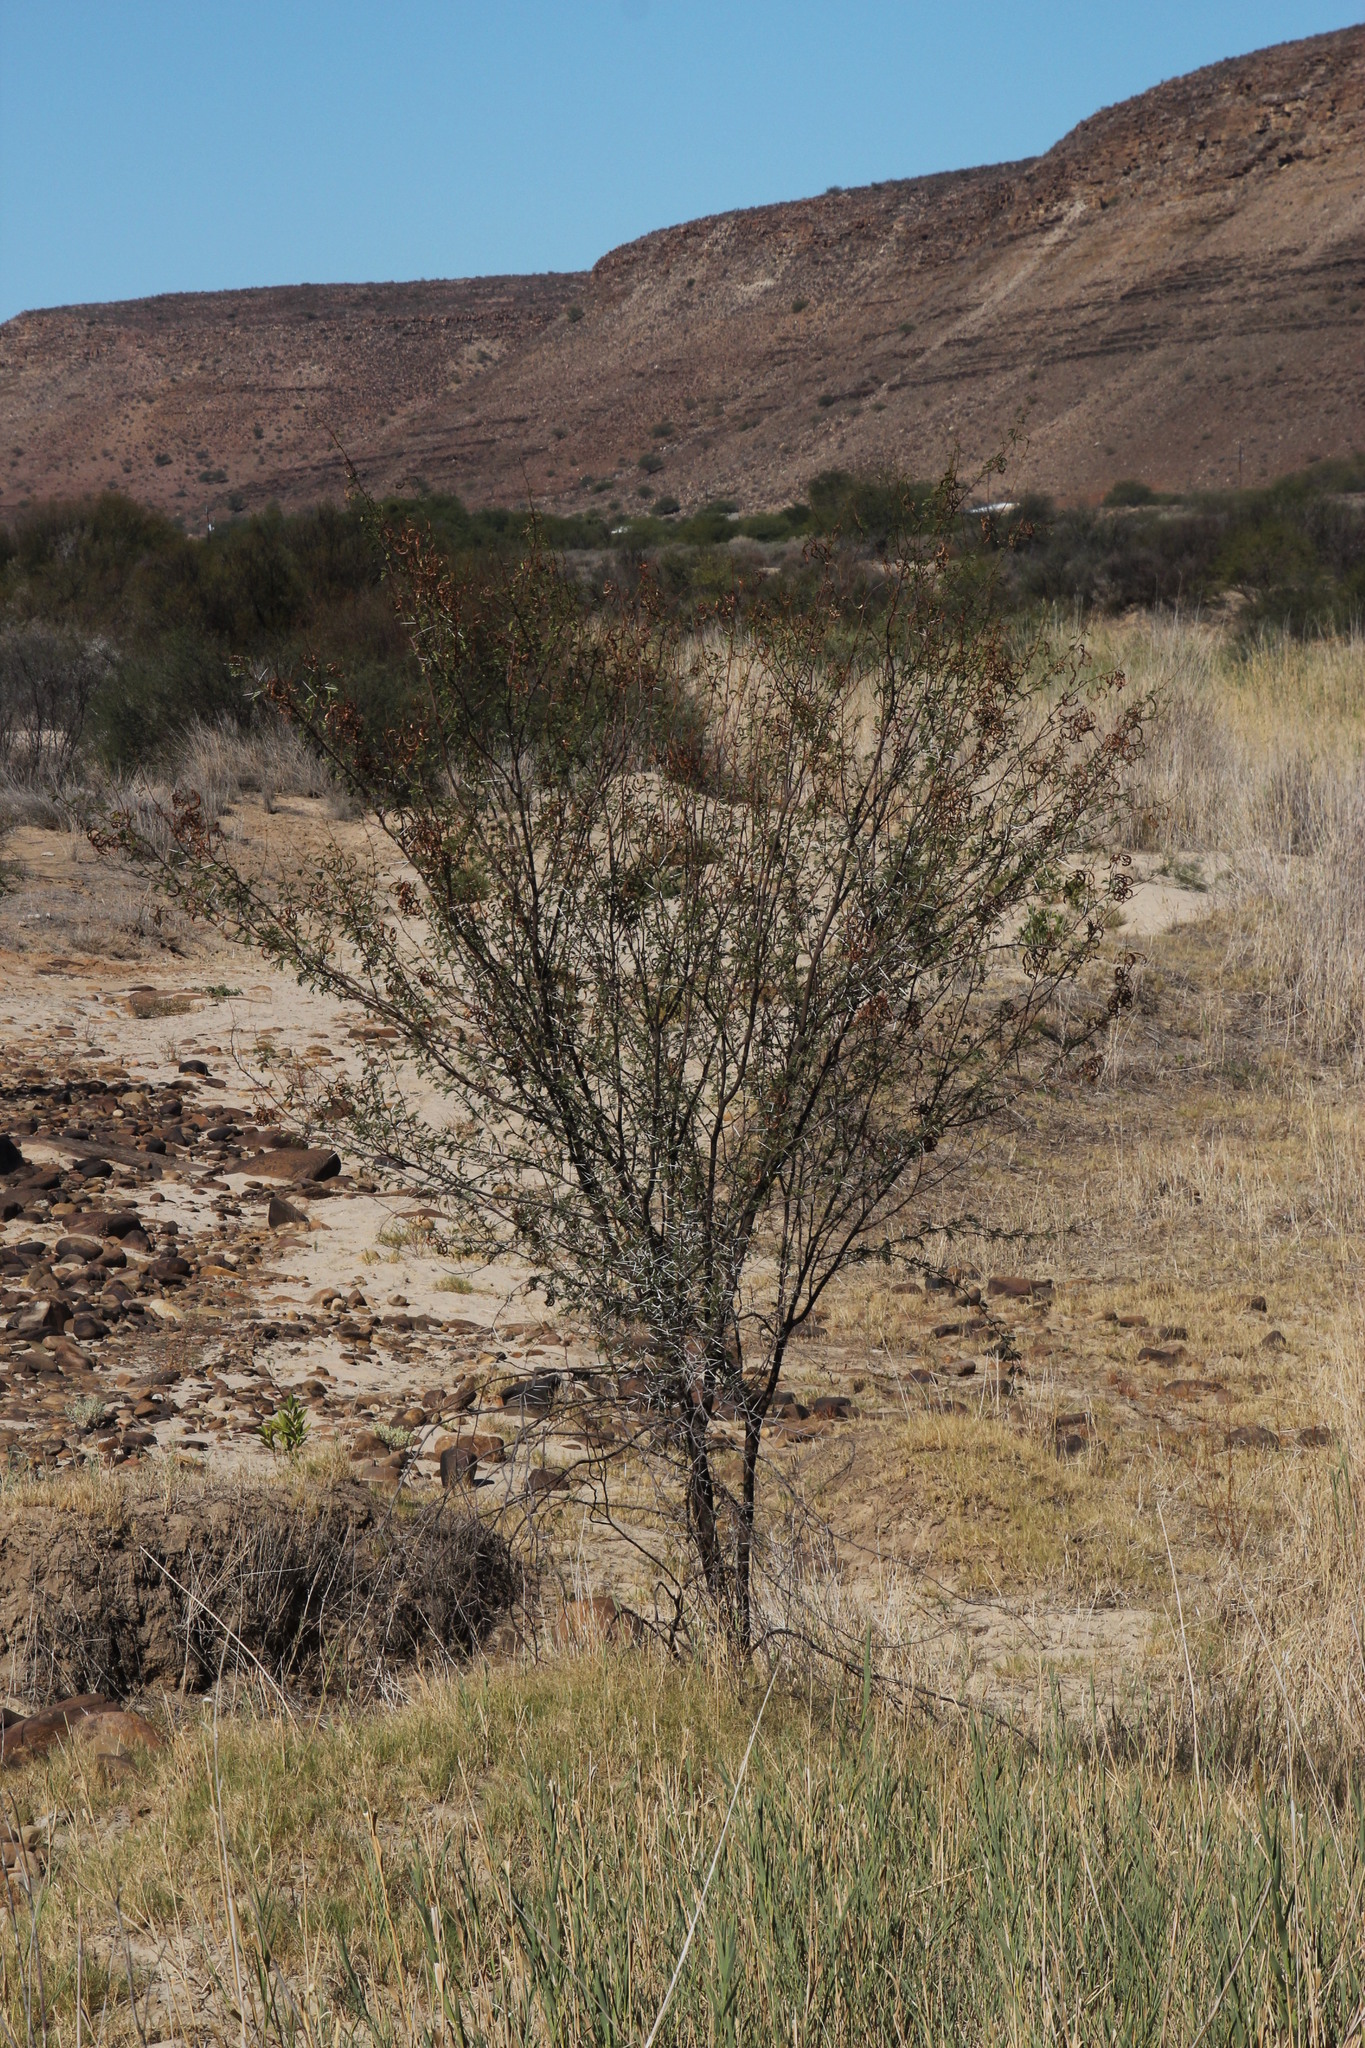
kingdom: Plantae
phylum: Tracheophyta
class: Magnoliopsida
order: Fabales
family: Fabaceae
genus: Vachellia
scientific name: Vachellia karroo
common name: Sweet thorn
